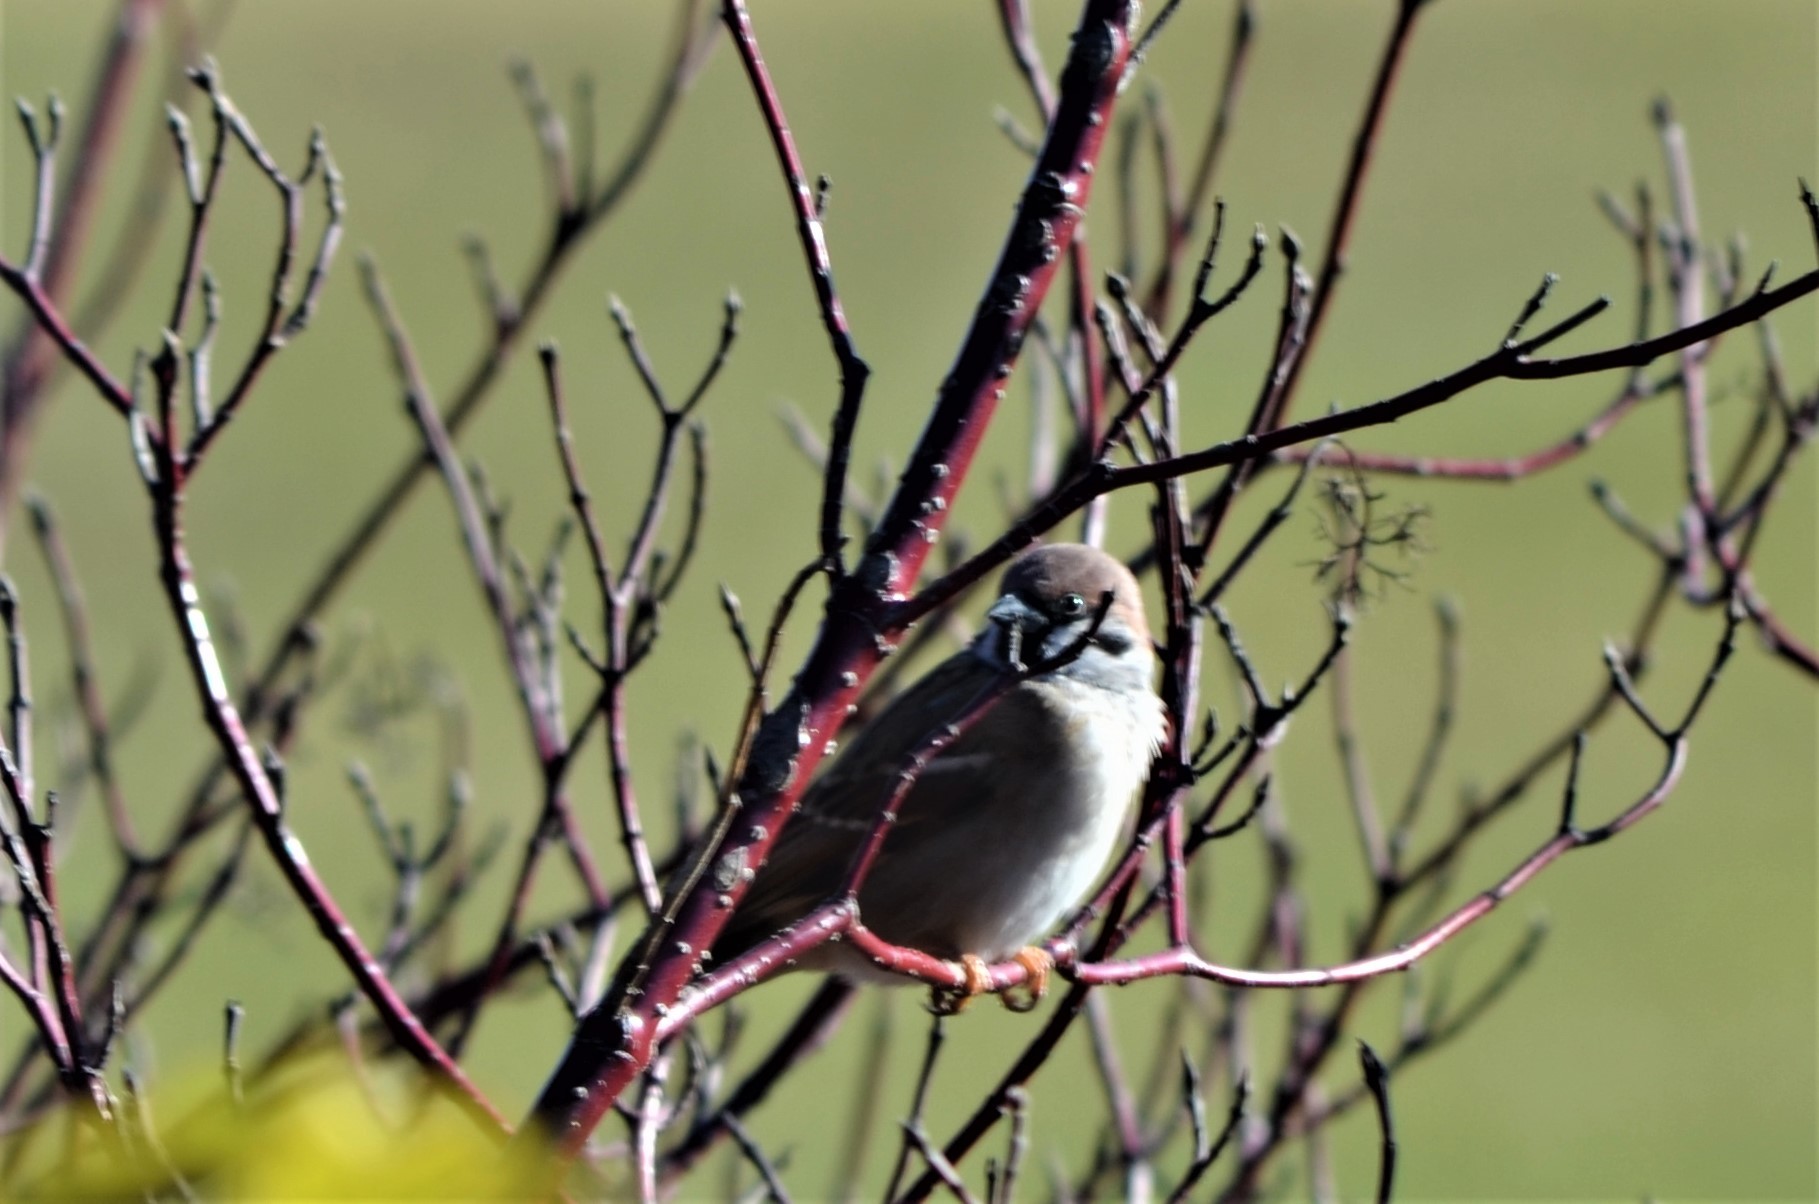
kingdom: Animalia
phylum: Chordata
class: Aves
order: Passeriformes
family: Passeridae
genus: Passer
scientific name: Passer montanus
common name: Eurasian tree sparrow
